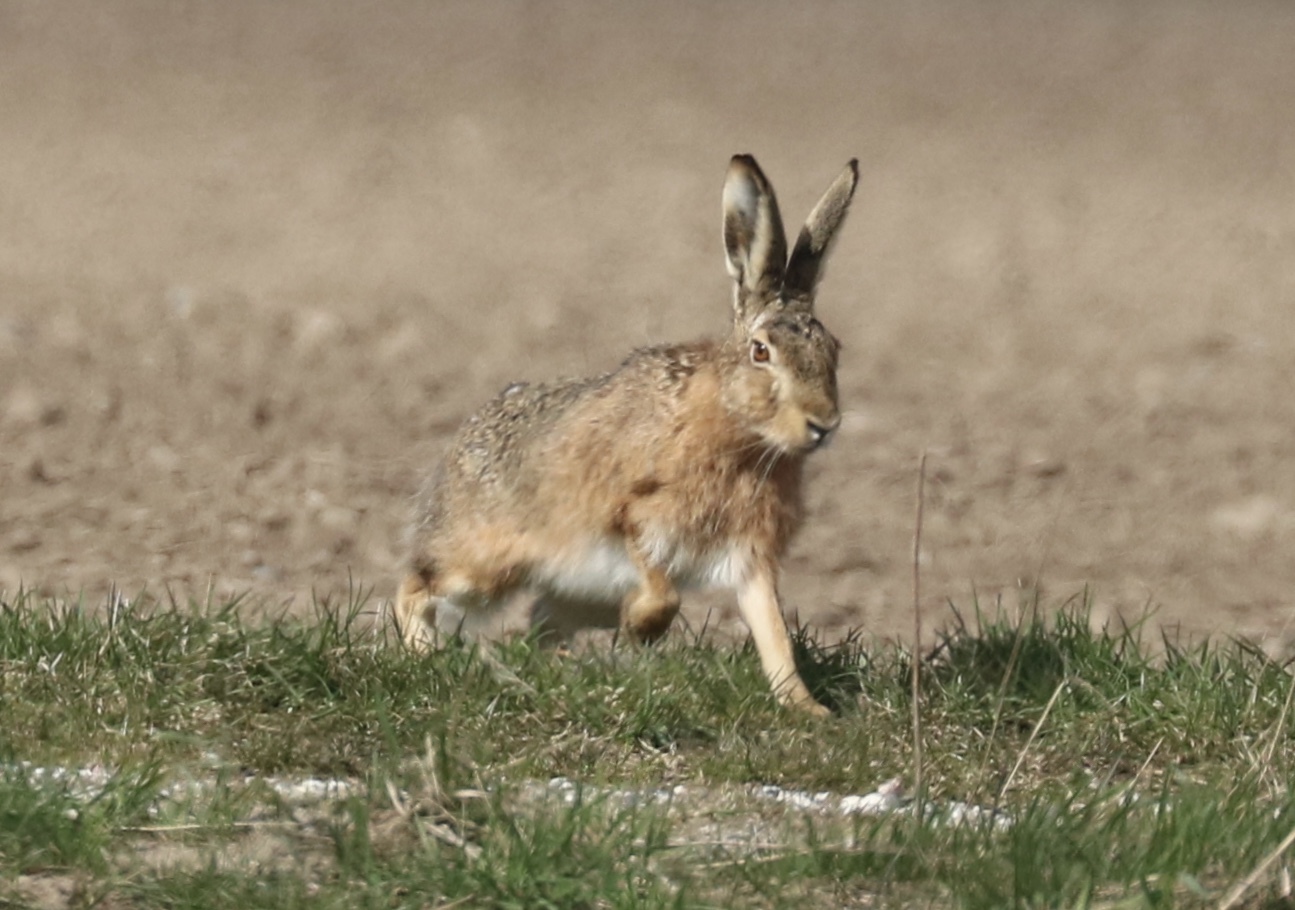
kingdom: Animalia
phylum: Chordata
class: Mammalia
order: Lagomorpha
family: Leporidae
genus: Lepus
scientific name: Lepus europaeus
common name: European hare
